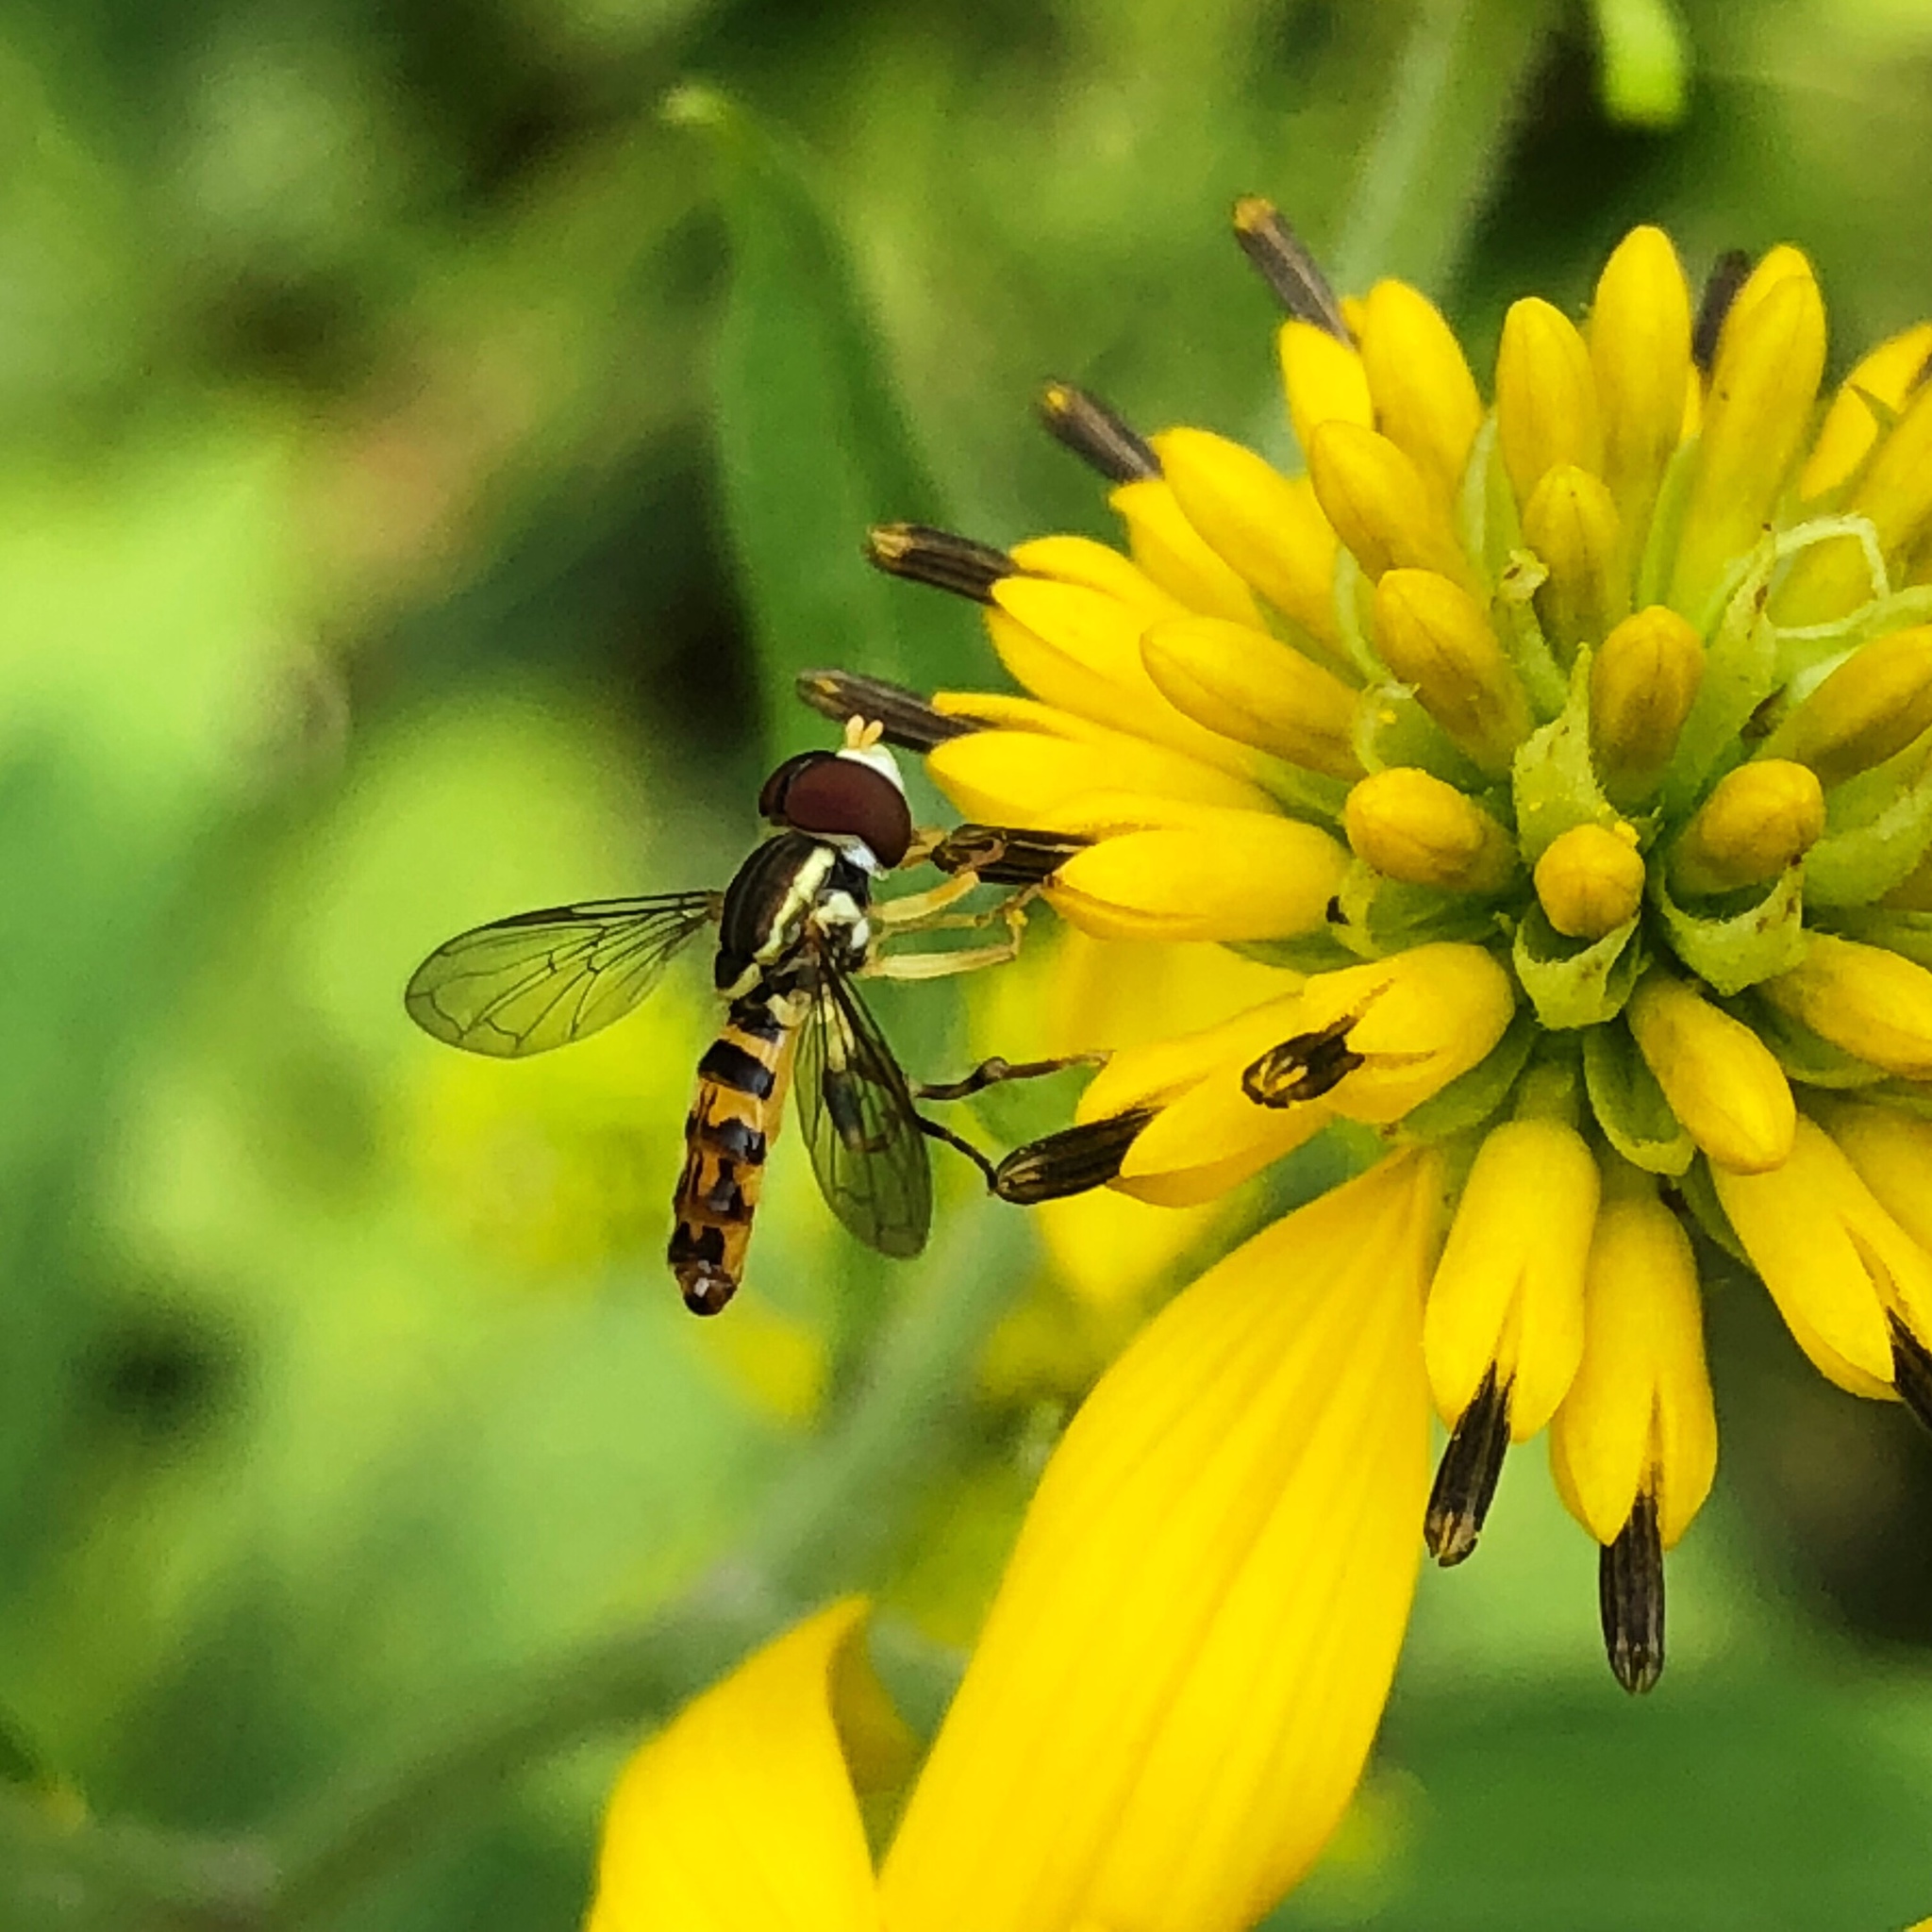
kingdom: Animalia
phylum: Arthropoda
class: Insecta
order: Diptera
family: Syrphidae
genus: Toxomerus
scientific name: Toxomerus geminatus
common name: Eastern calligrapher
